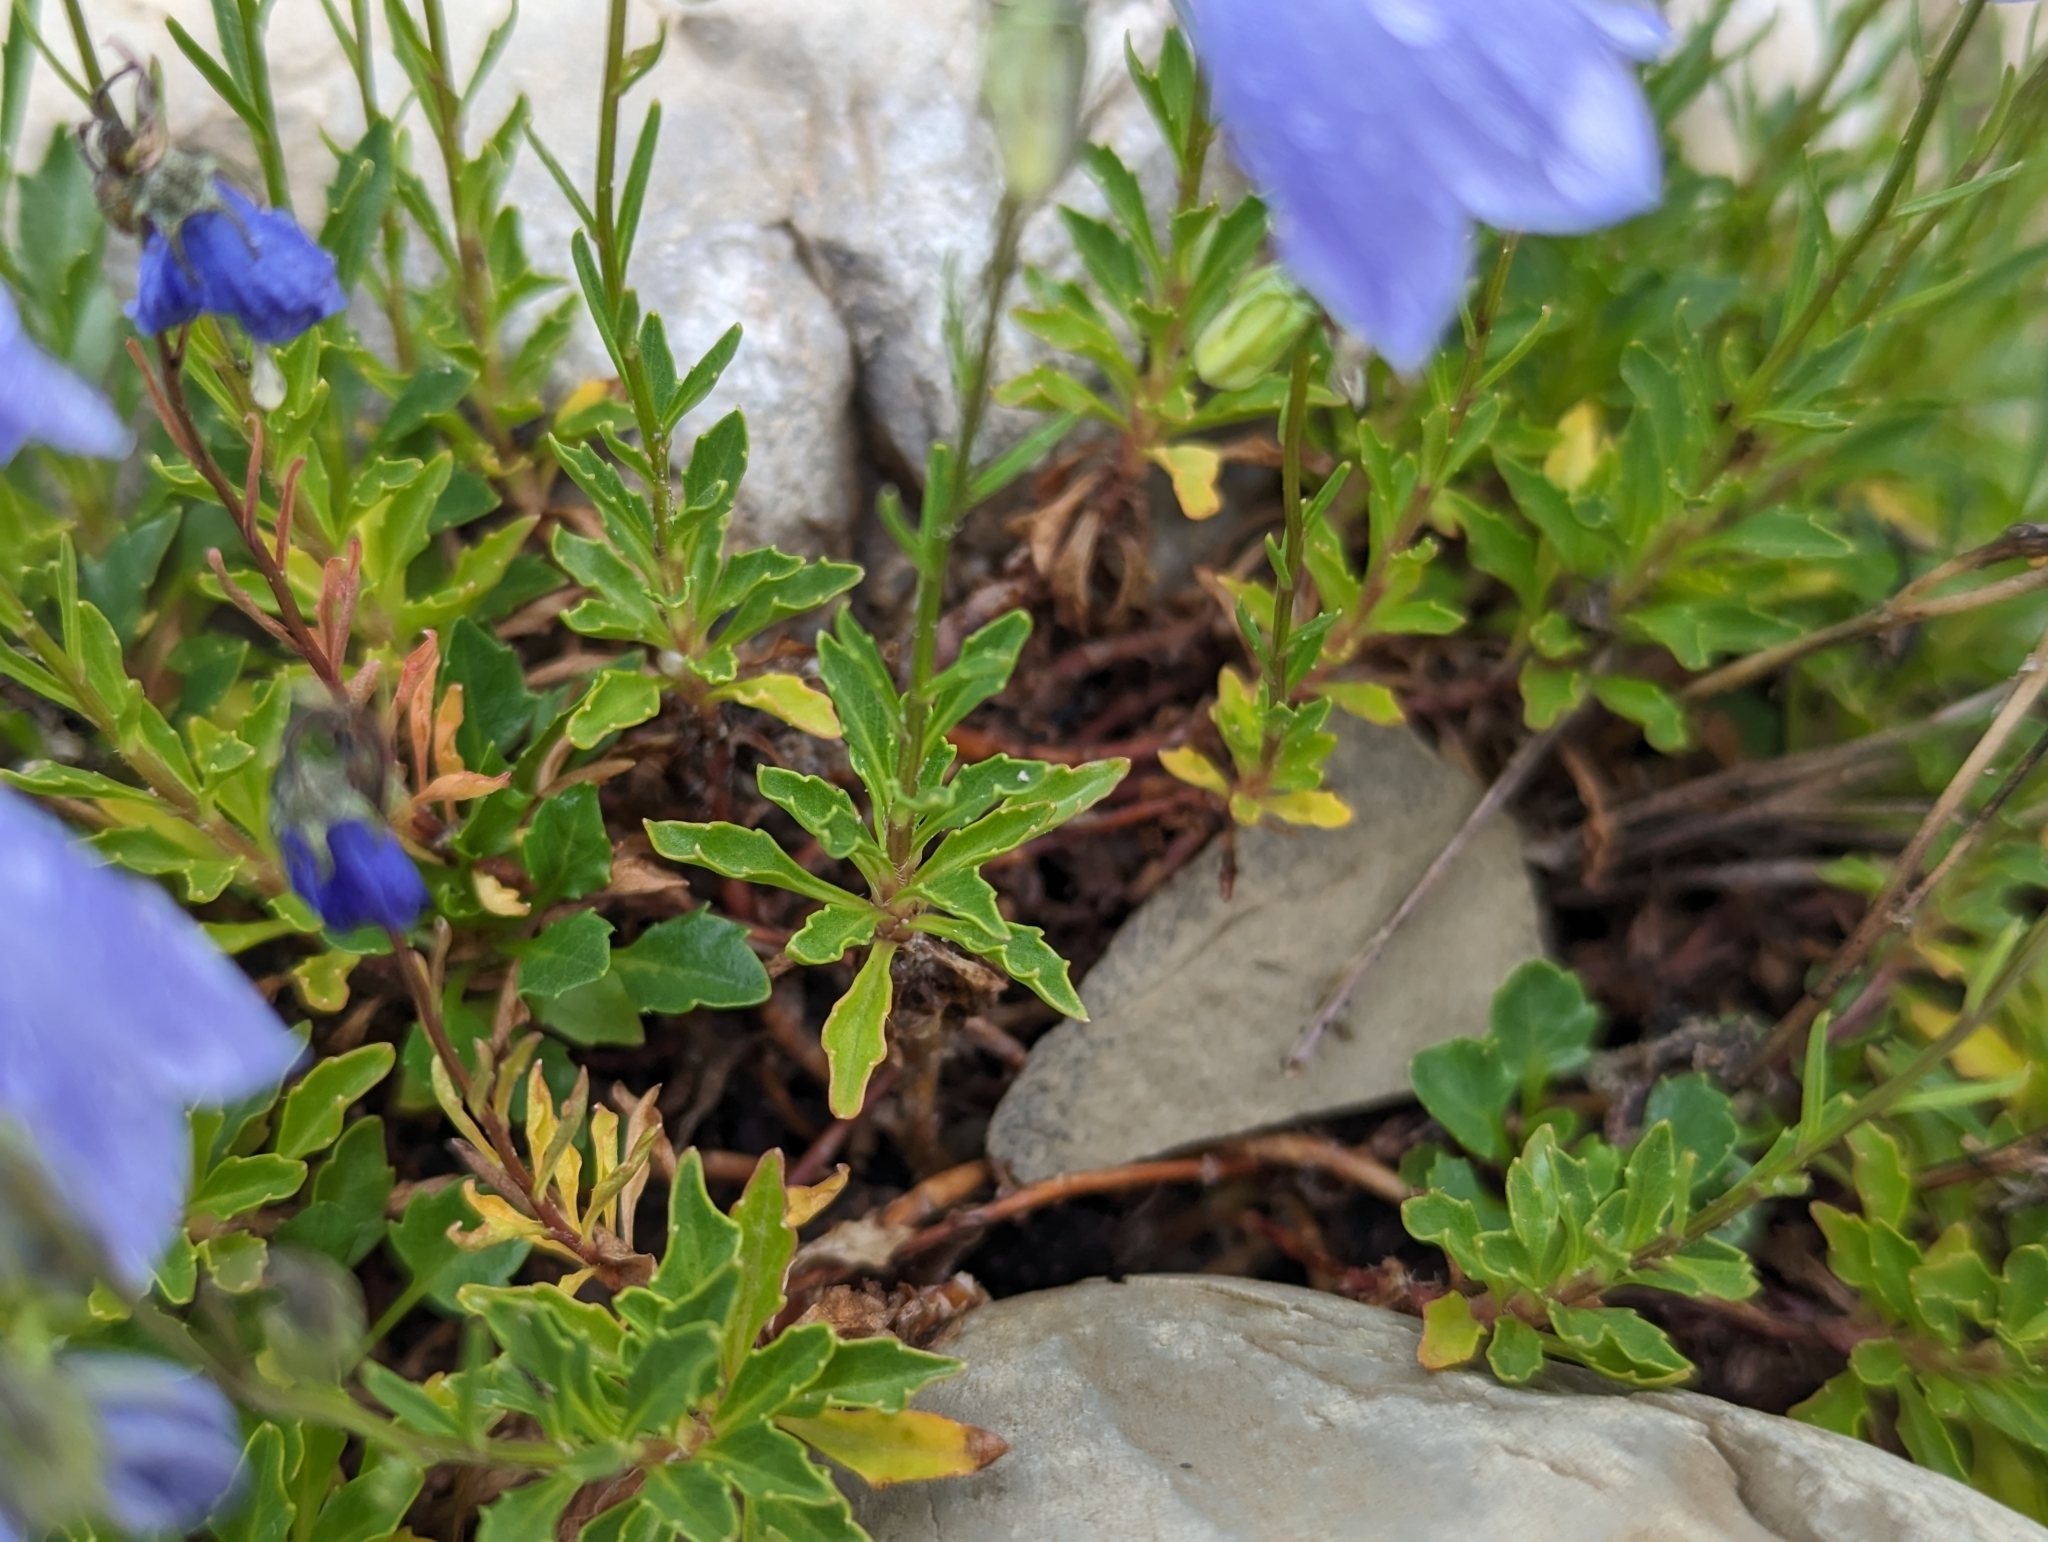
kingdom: Plantae
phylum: Tracheophyta
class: Magnoliopsida
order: Asterales
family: Campanulaceae
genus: Campanula
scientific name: Campanula cochleariifolia
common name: Fairies'-thimbles
